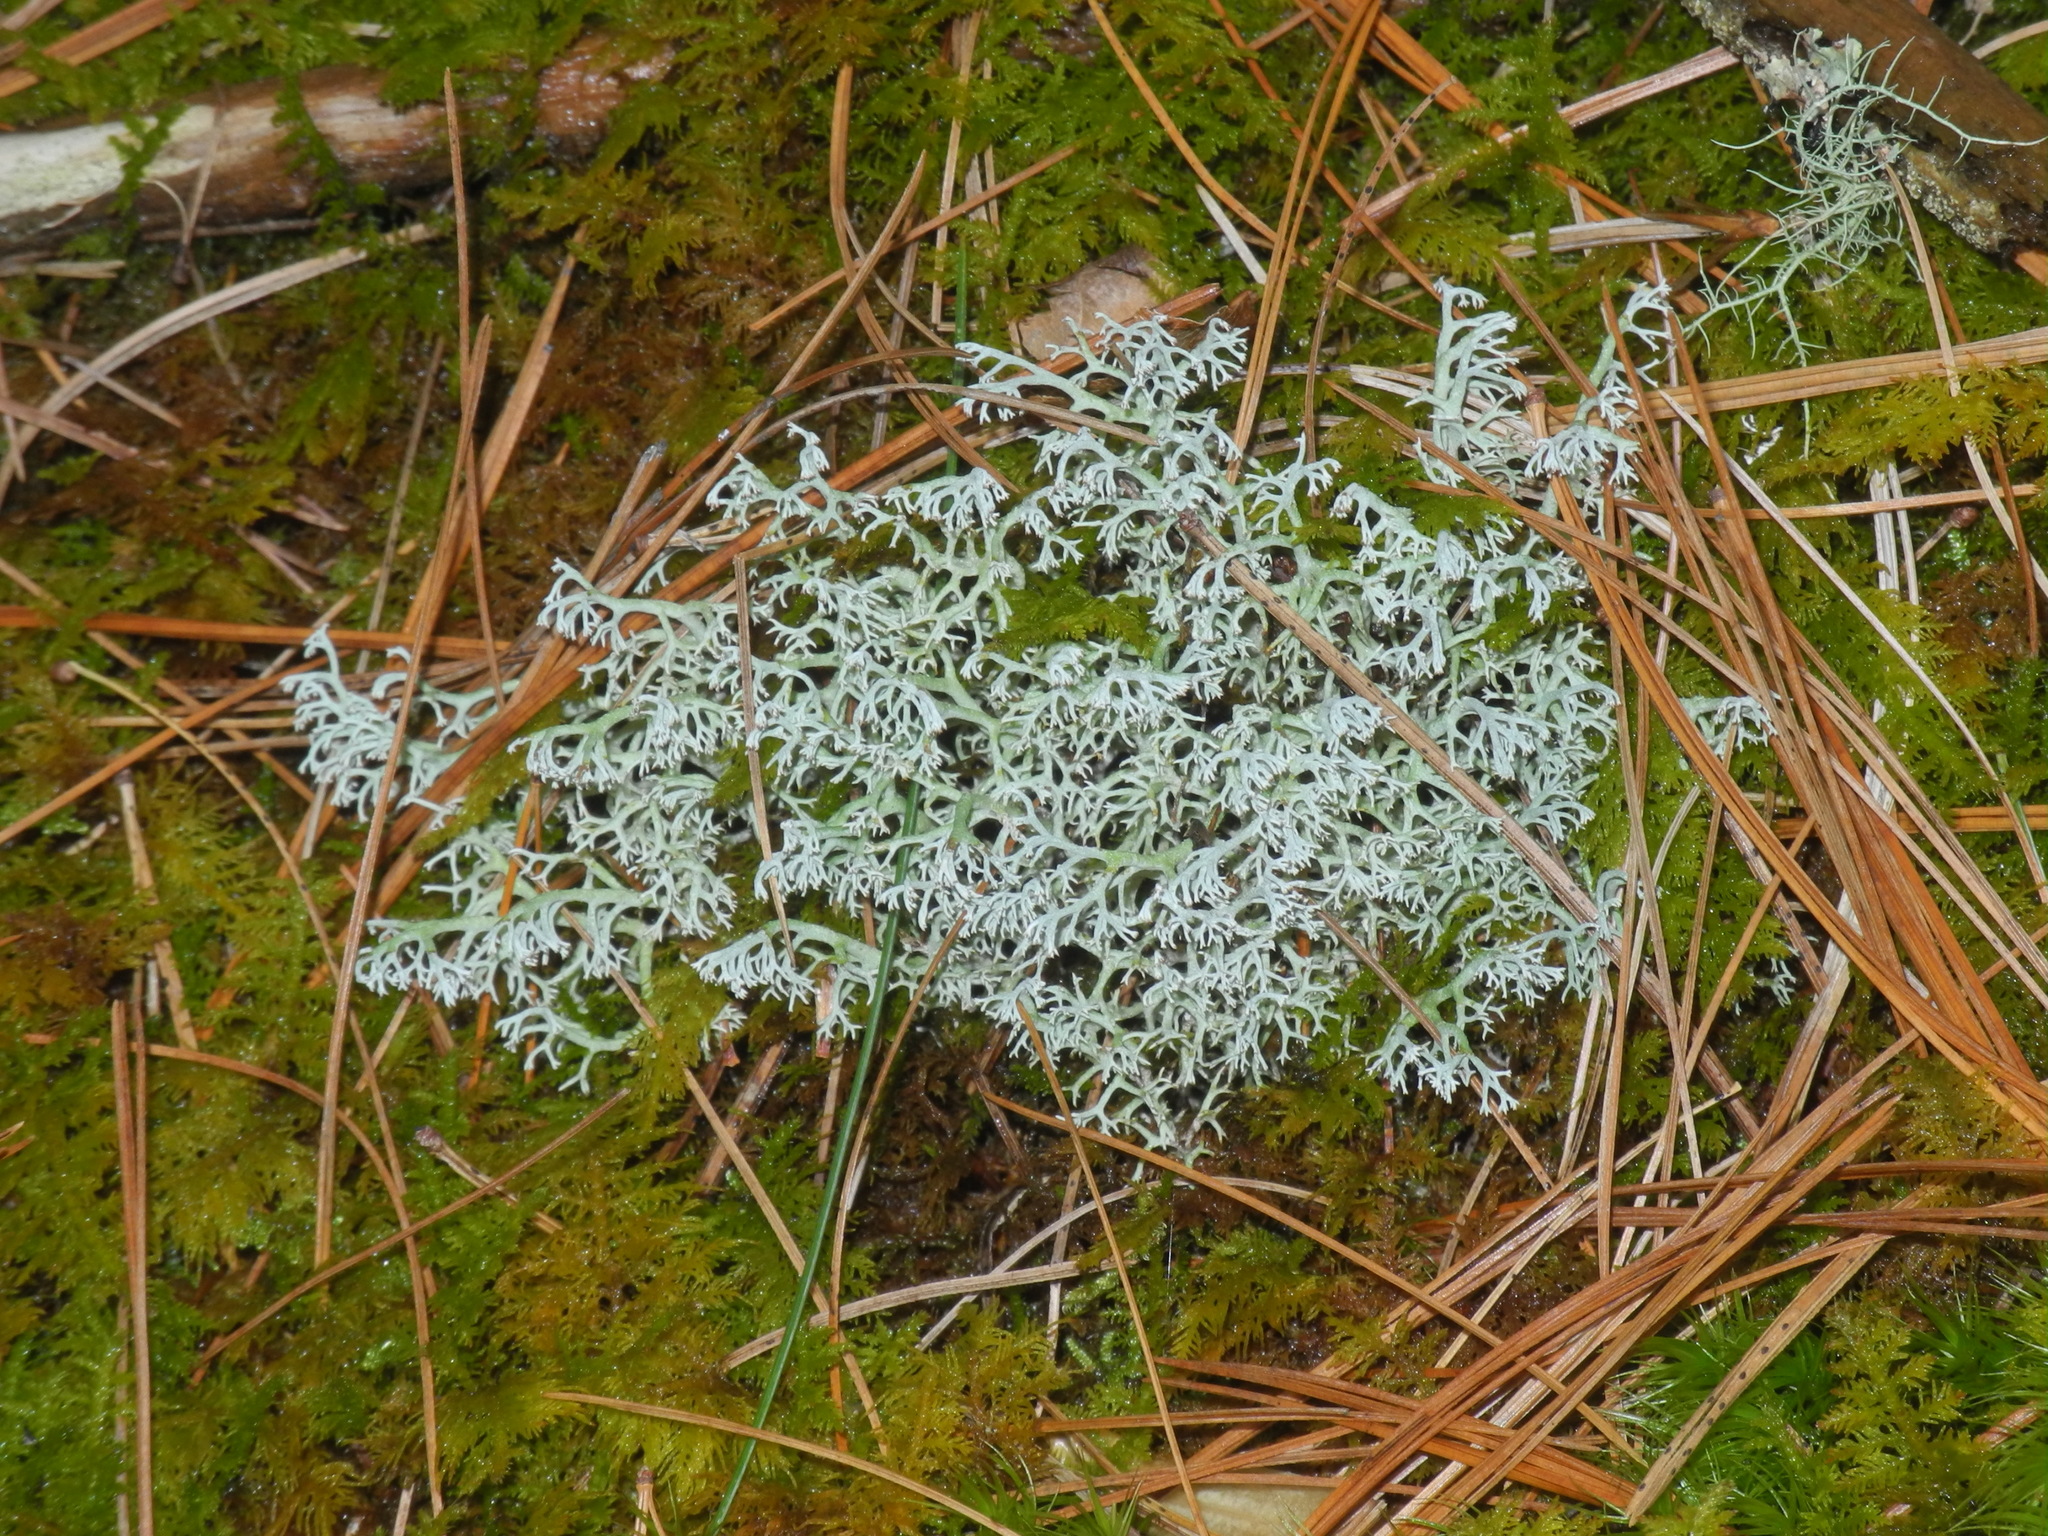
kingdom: Fungi
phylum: Ascomycota
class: Lecanoromycetes
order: Lecanorales
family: Cladoniaceae
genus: Cladonia
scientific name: Cladonia rangiferina
